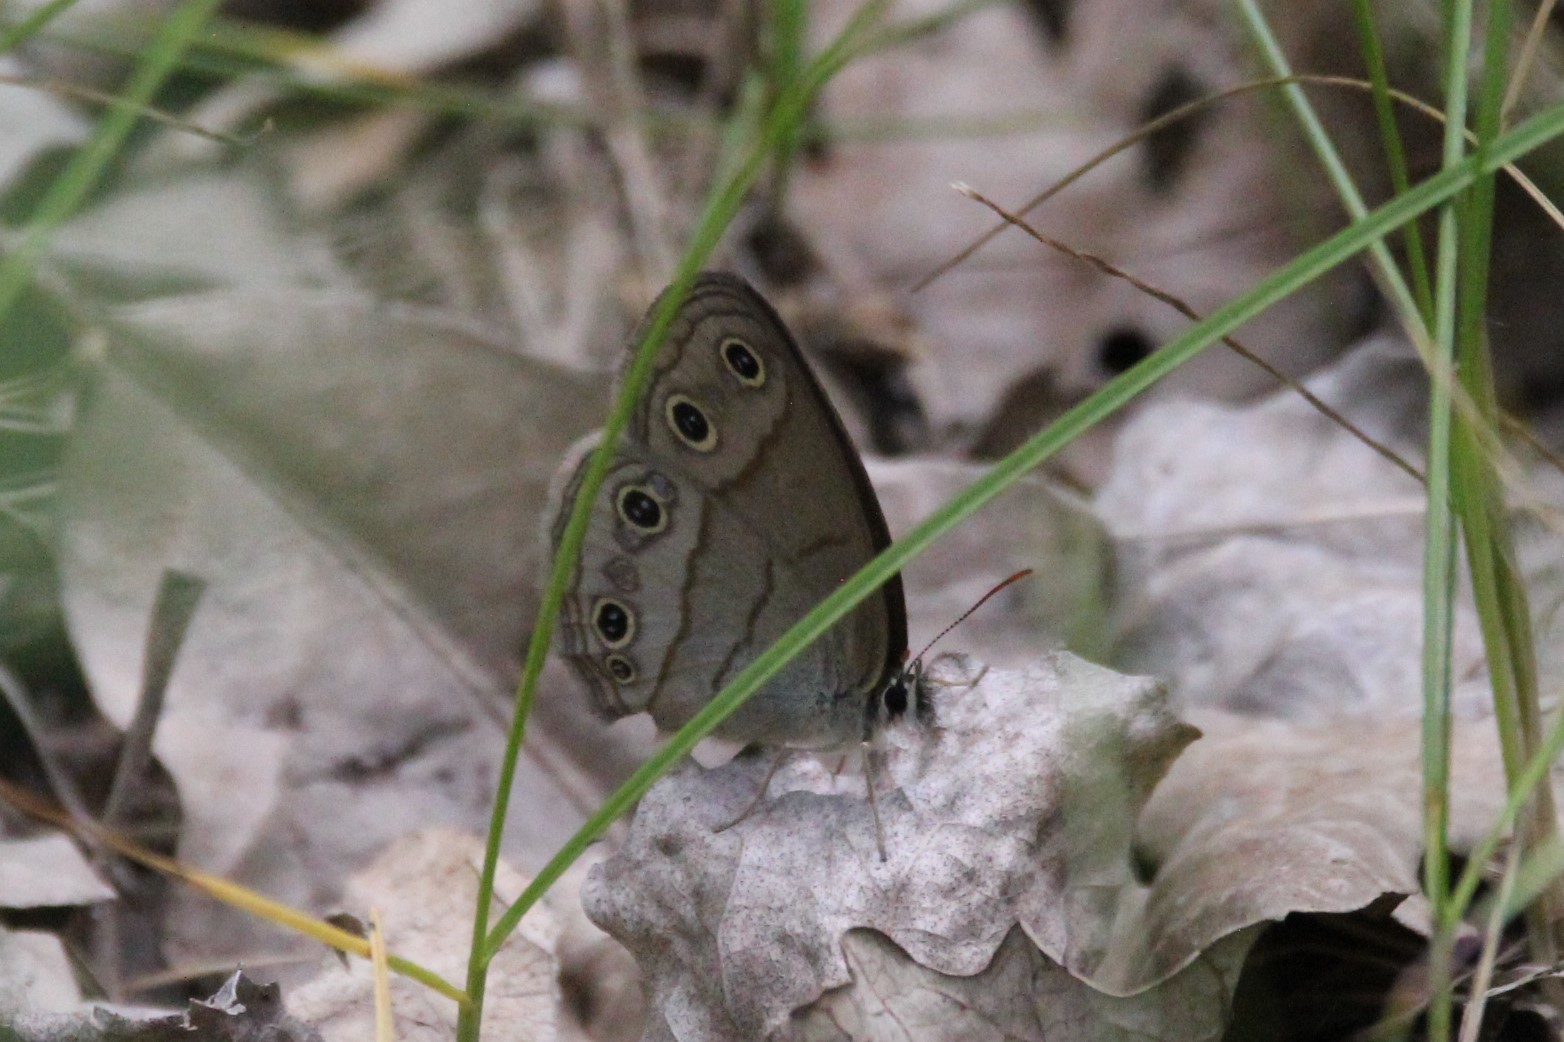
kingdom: Animalia
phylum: Arthropoda
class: Insecta
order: Lepidoptera
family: Nymphalidae
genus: Euptychia
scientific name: Euptychia cymela
